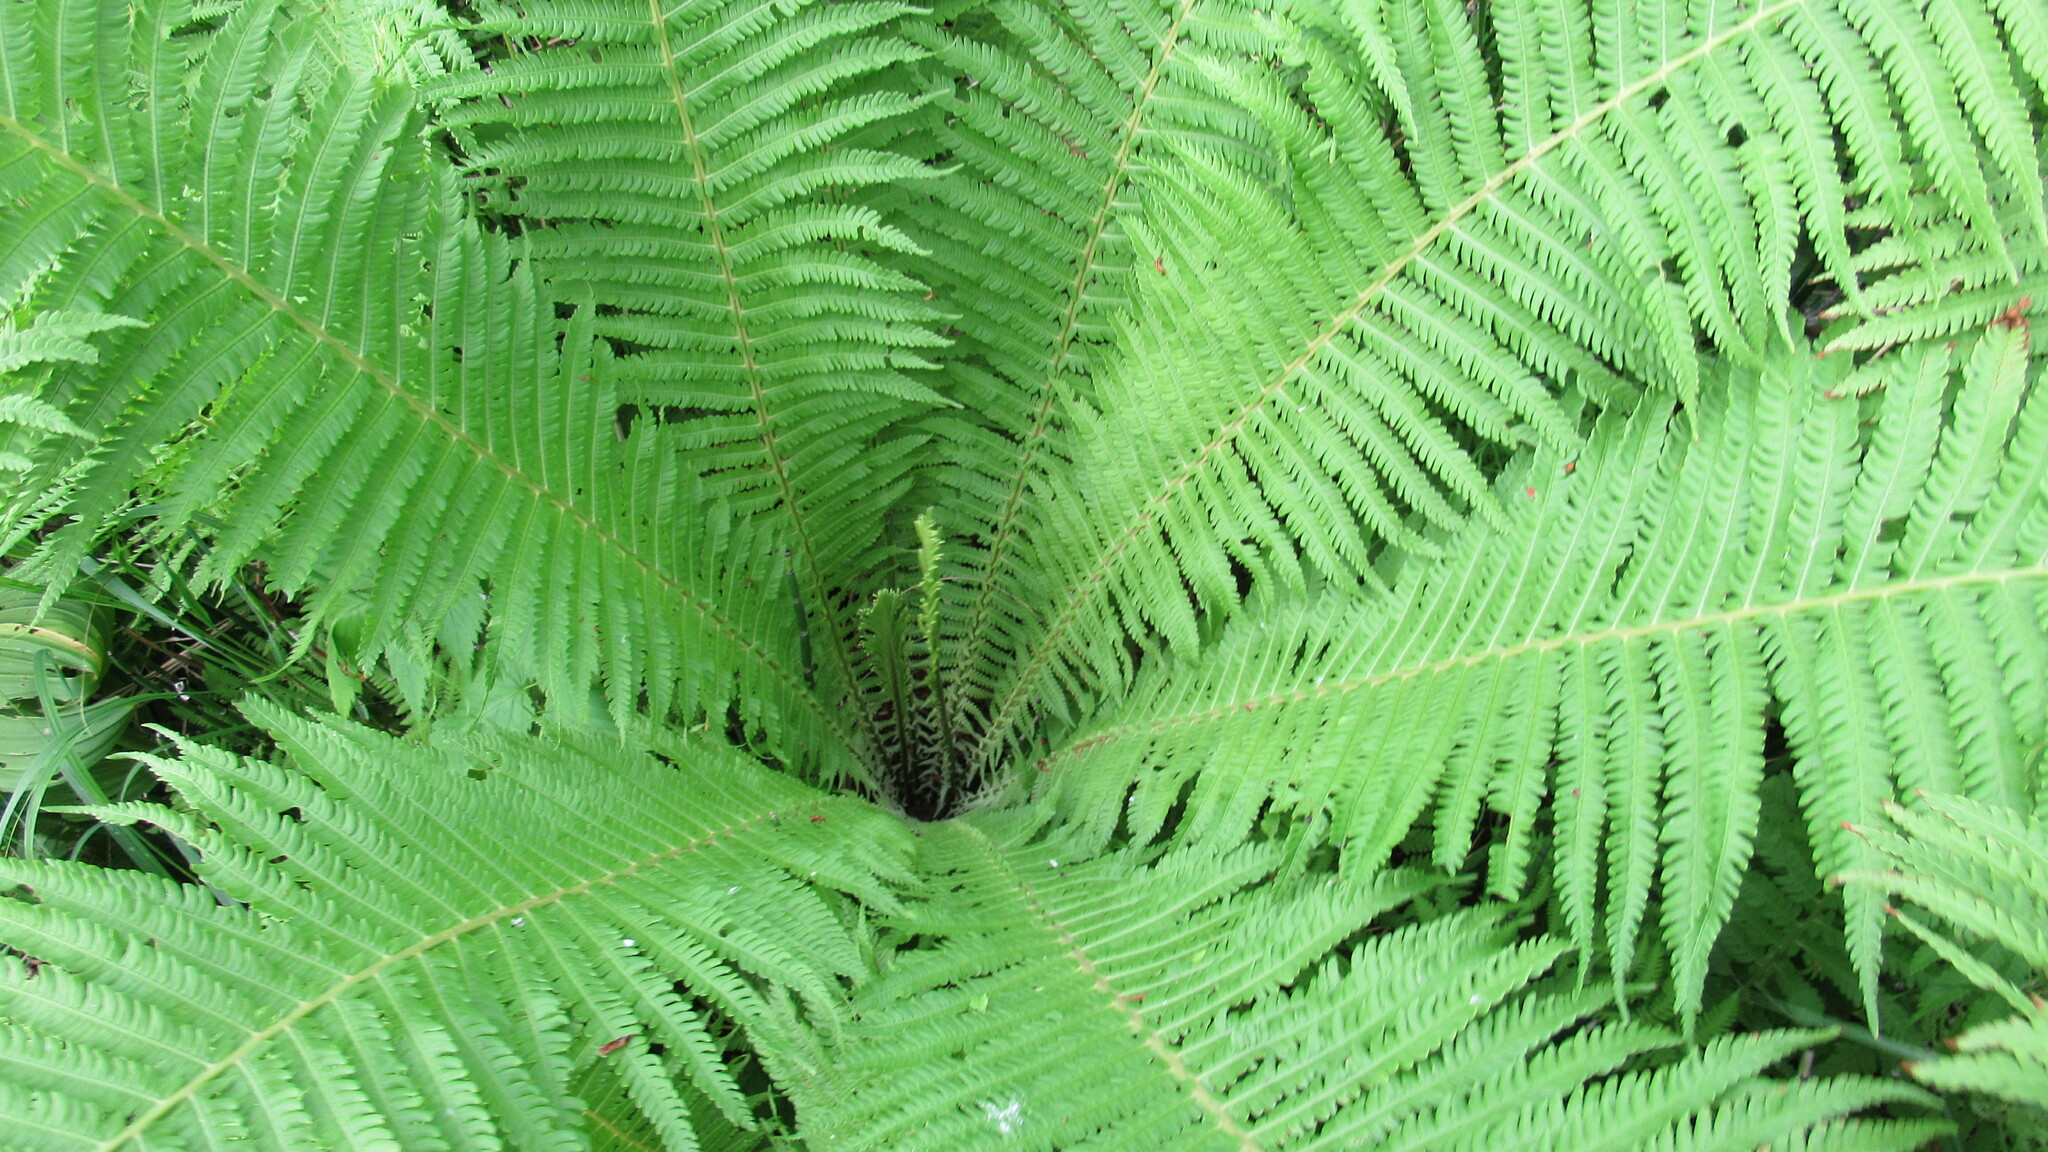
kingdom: Plantae
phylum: Tracheophyta
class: Polypodiopsida
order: Polypodiales
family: Onocleaceae
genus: Matteuccia
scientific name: Matteuccia struthiopteris
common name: Ostrich fern
